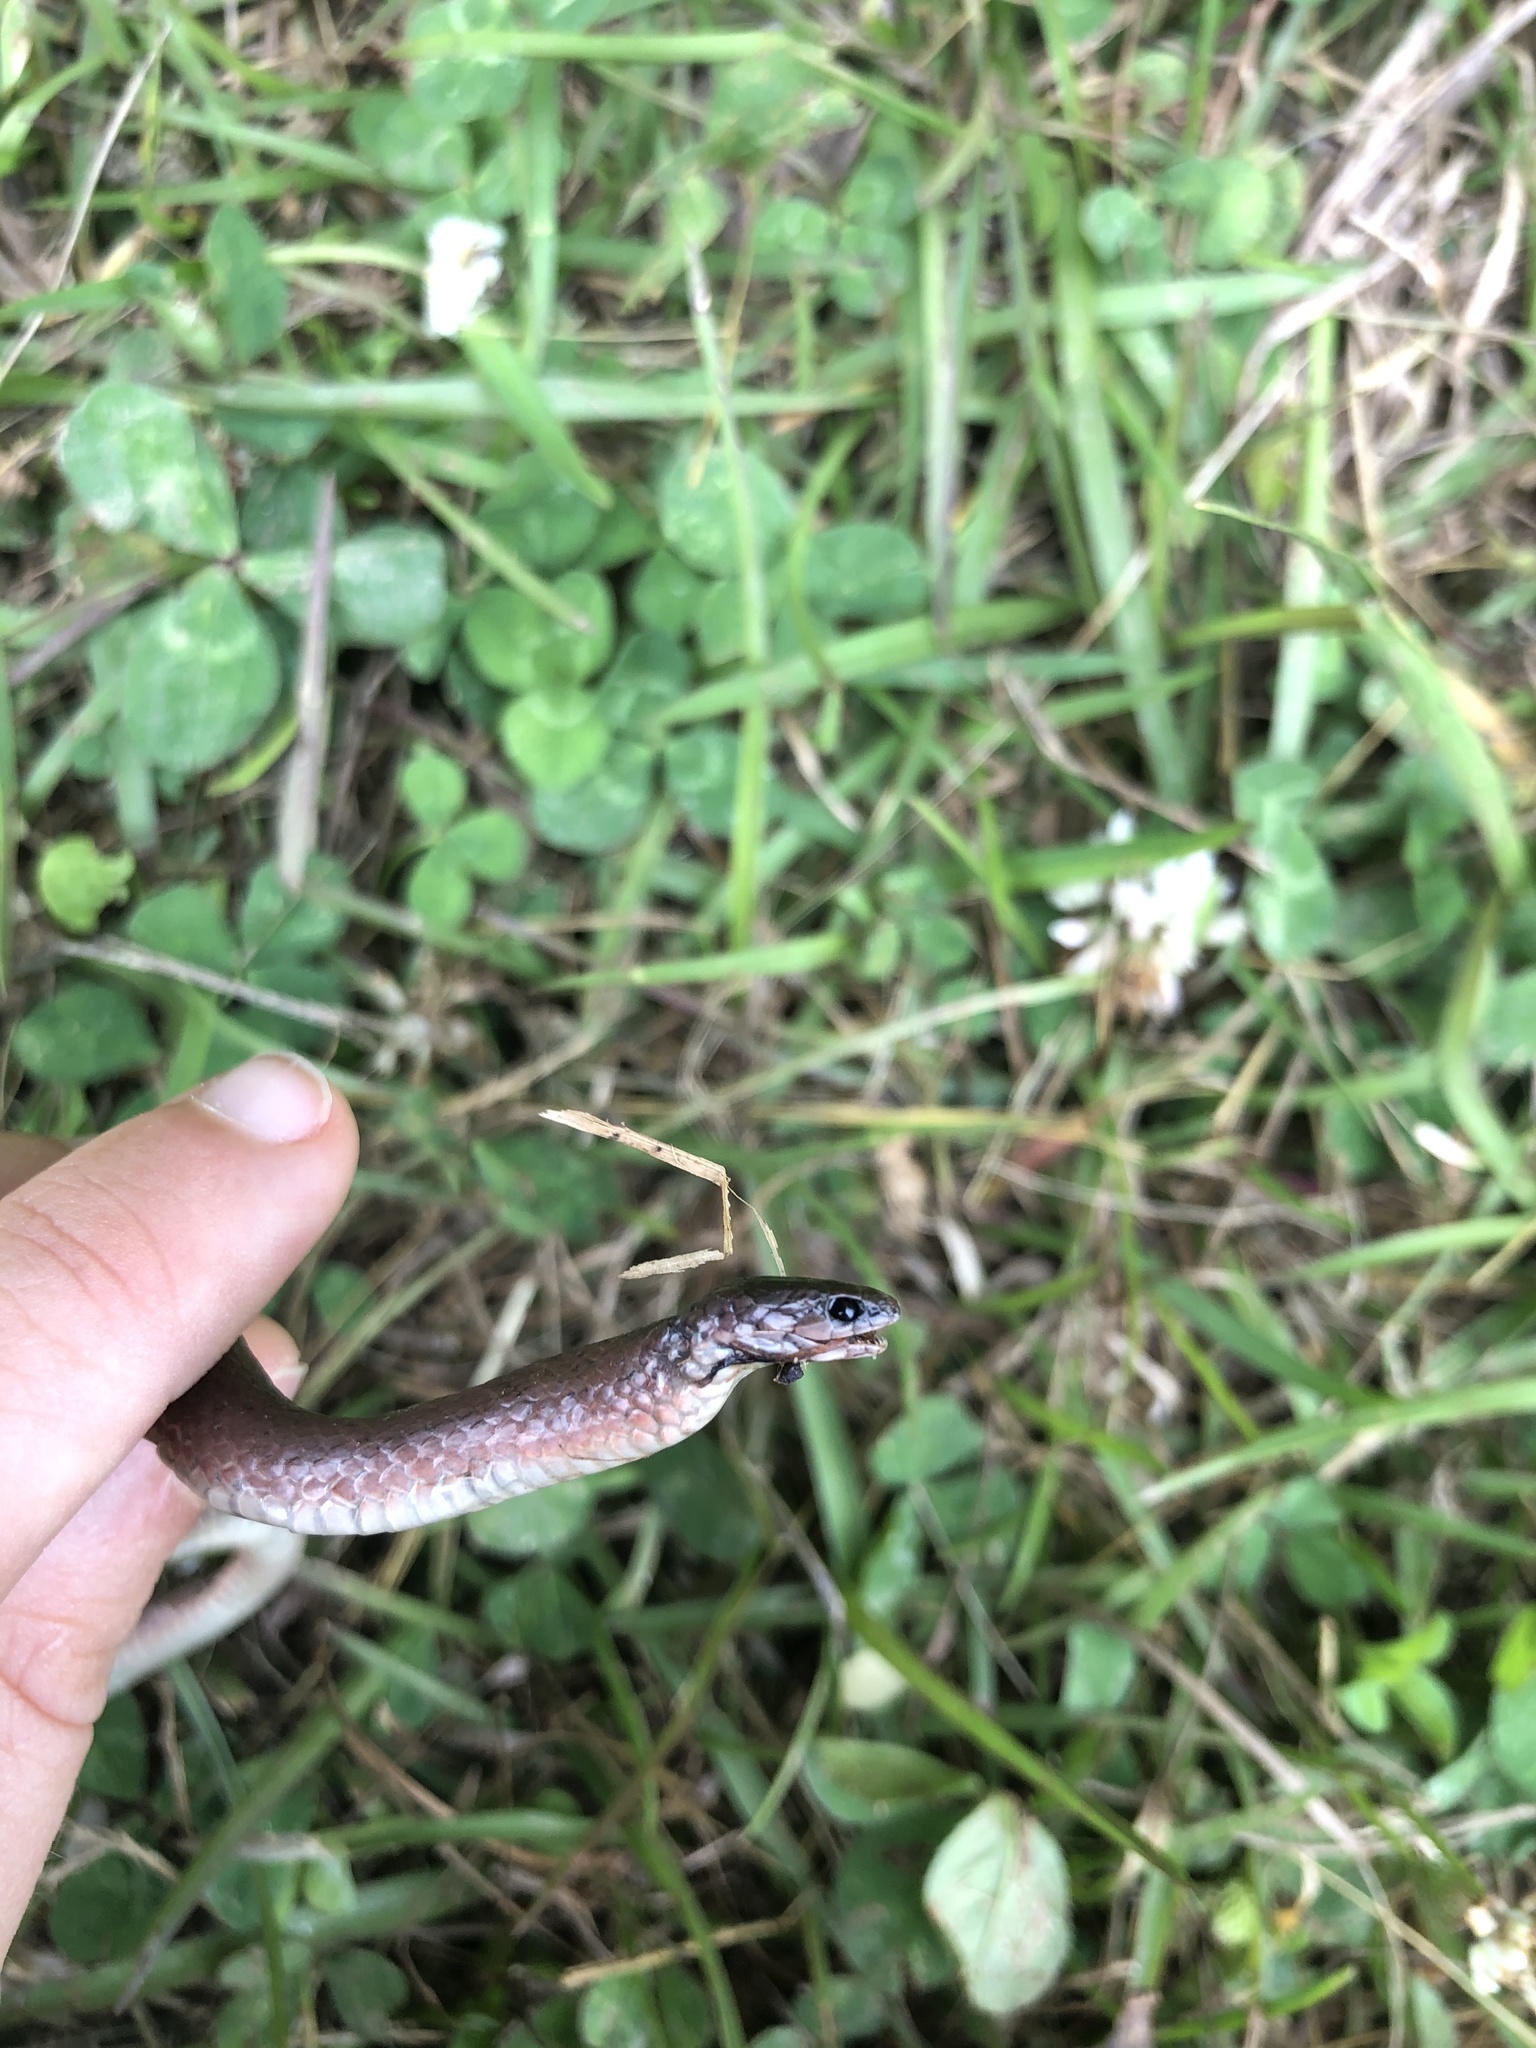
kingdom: Animalia
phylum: Chordata
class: Squamata
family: Colubridae
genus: Virginia
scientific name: Virginia valeriae
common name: Smooth earth snake
